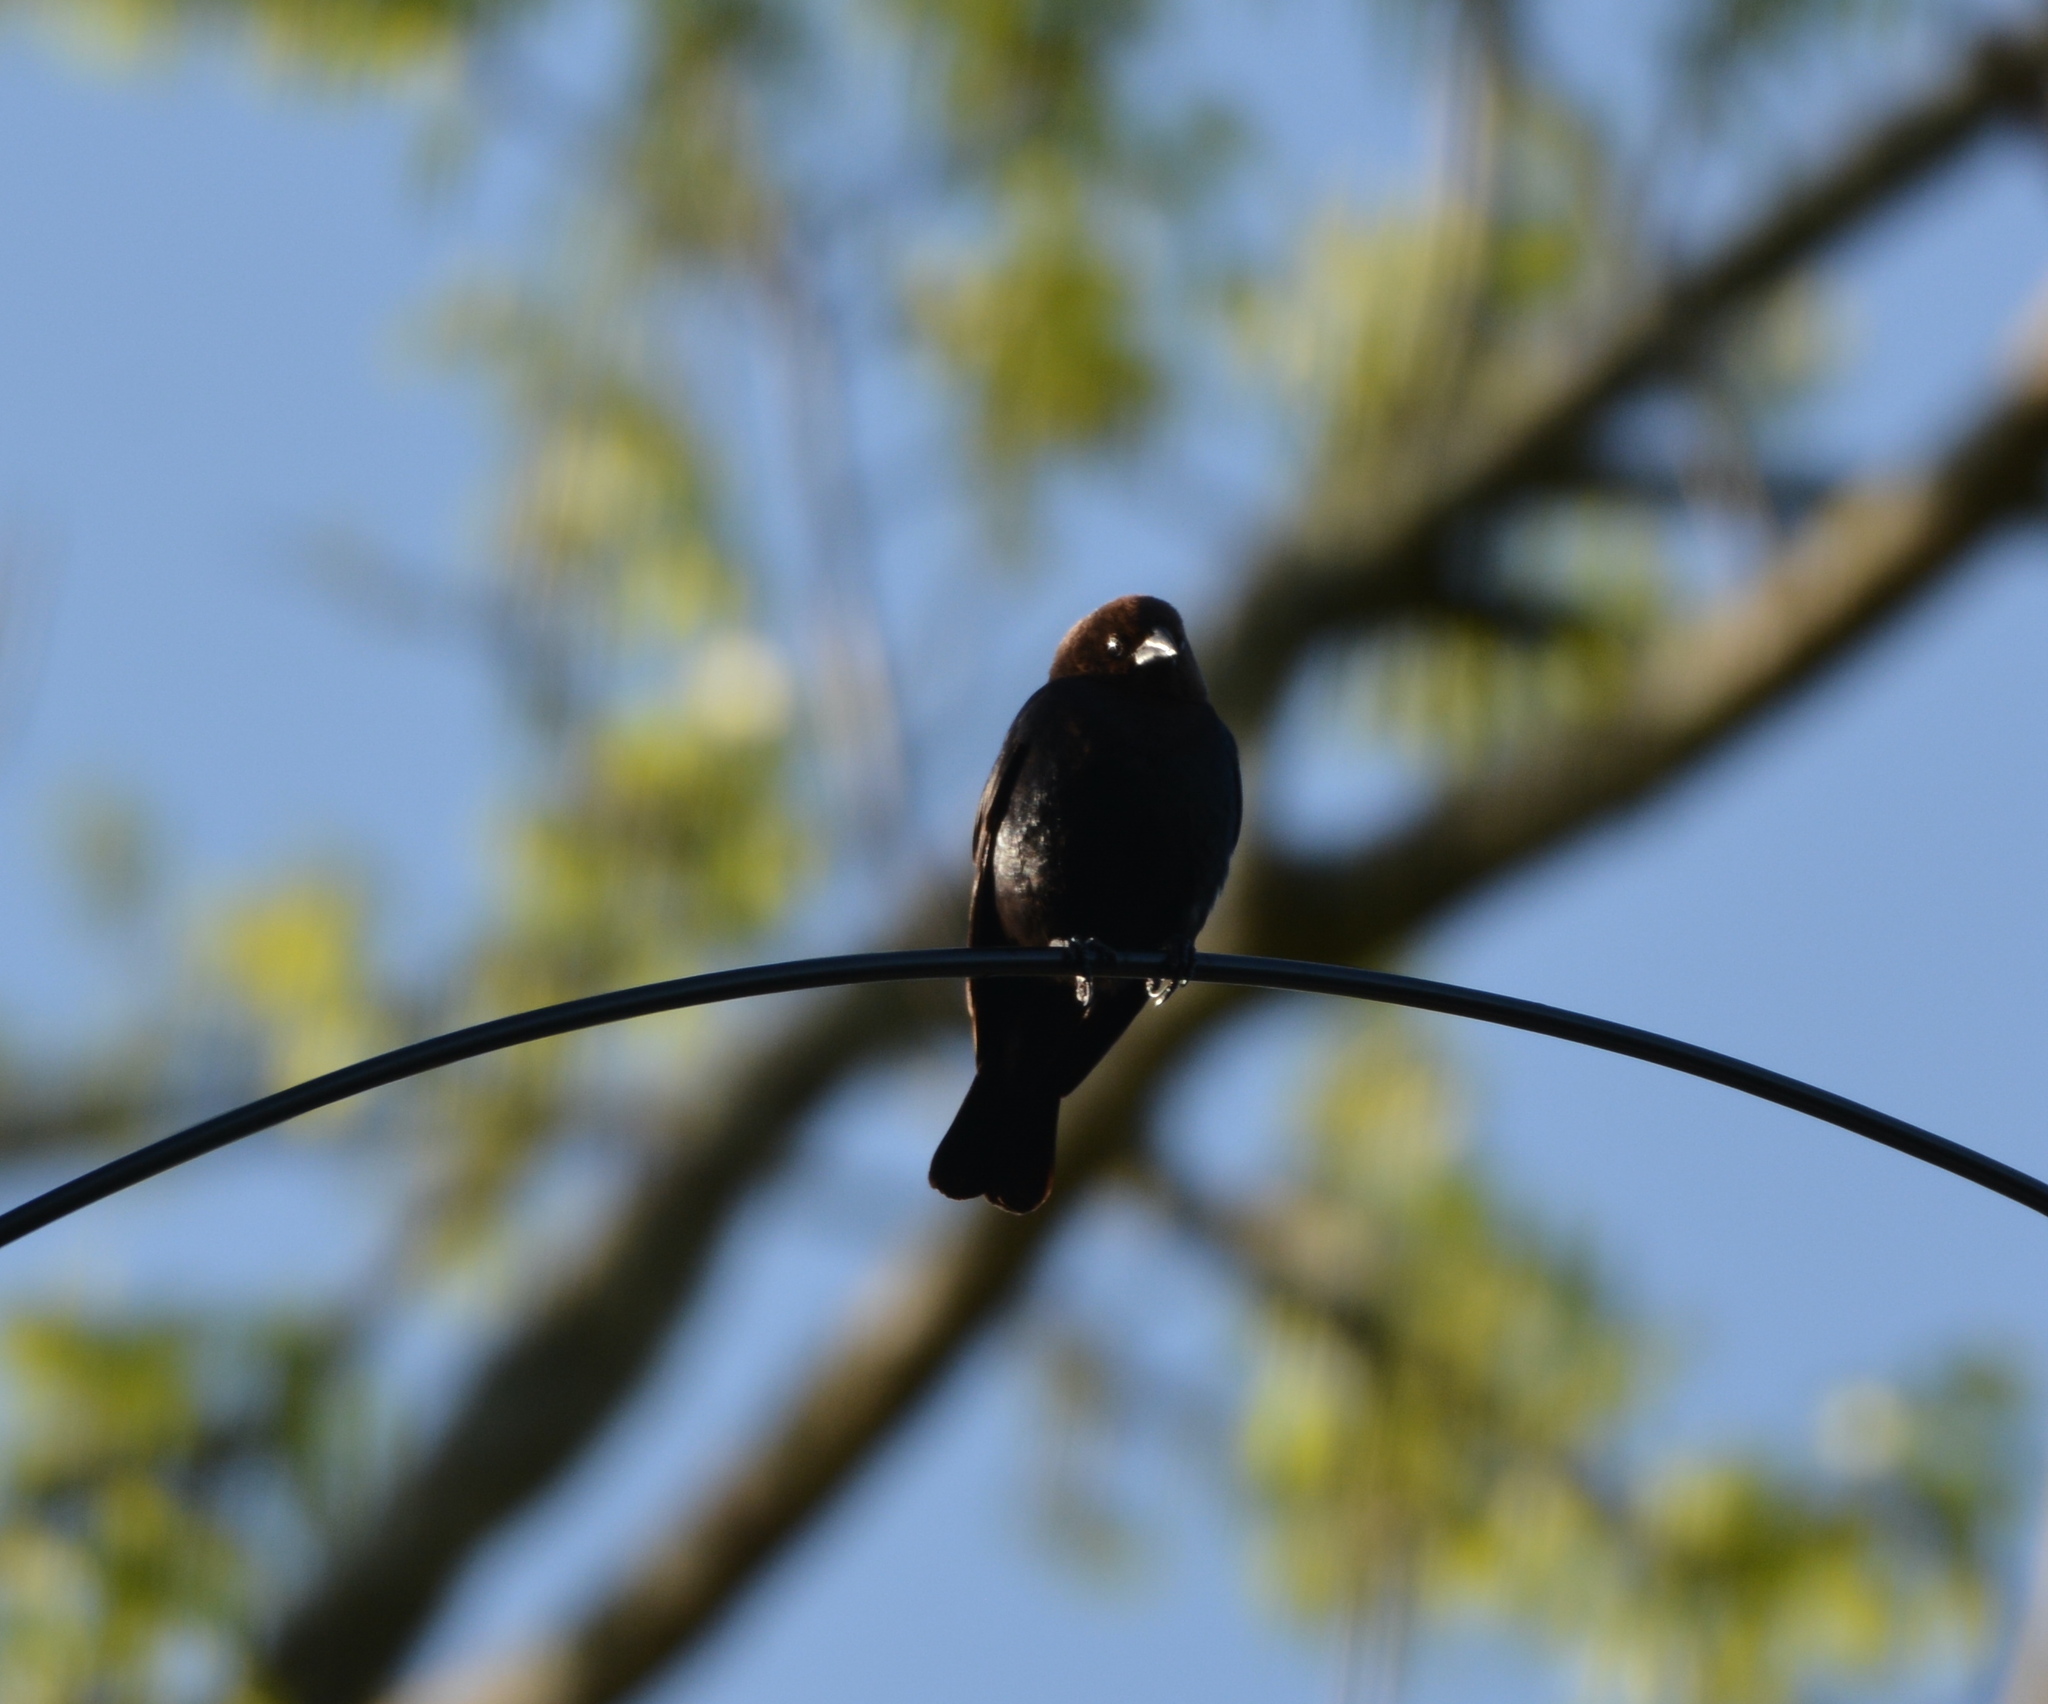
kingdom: Animalia
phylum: Chordata
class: Aves
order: Passeriformes
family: Icteridae
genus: Molothrus
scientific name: Molothrus ater
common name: Brown-headed cowbird
